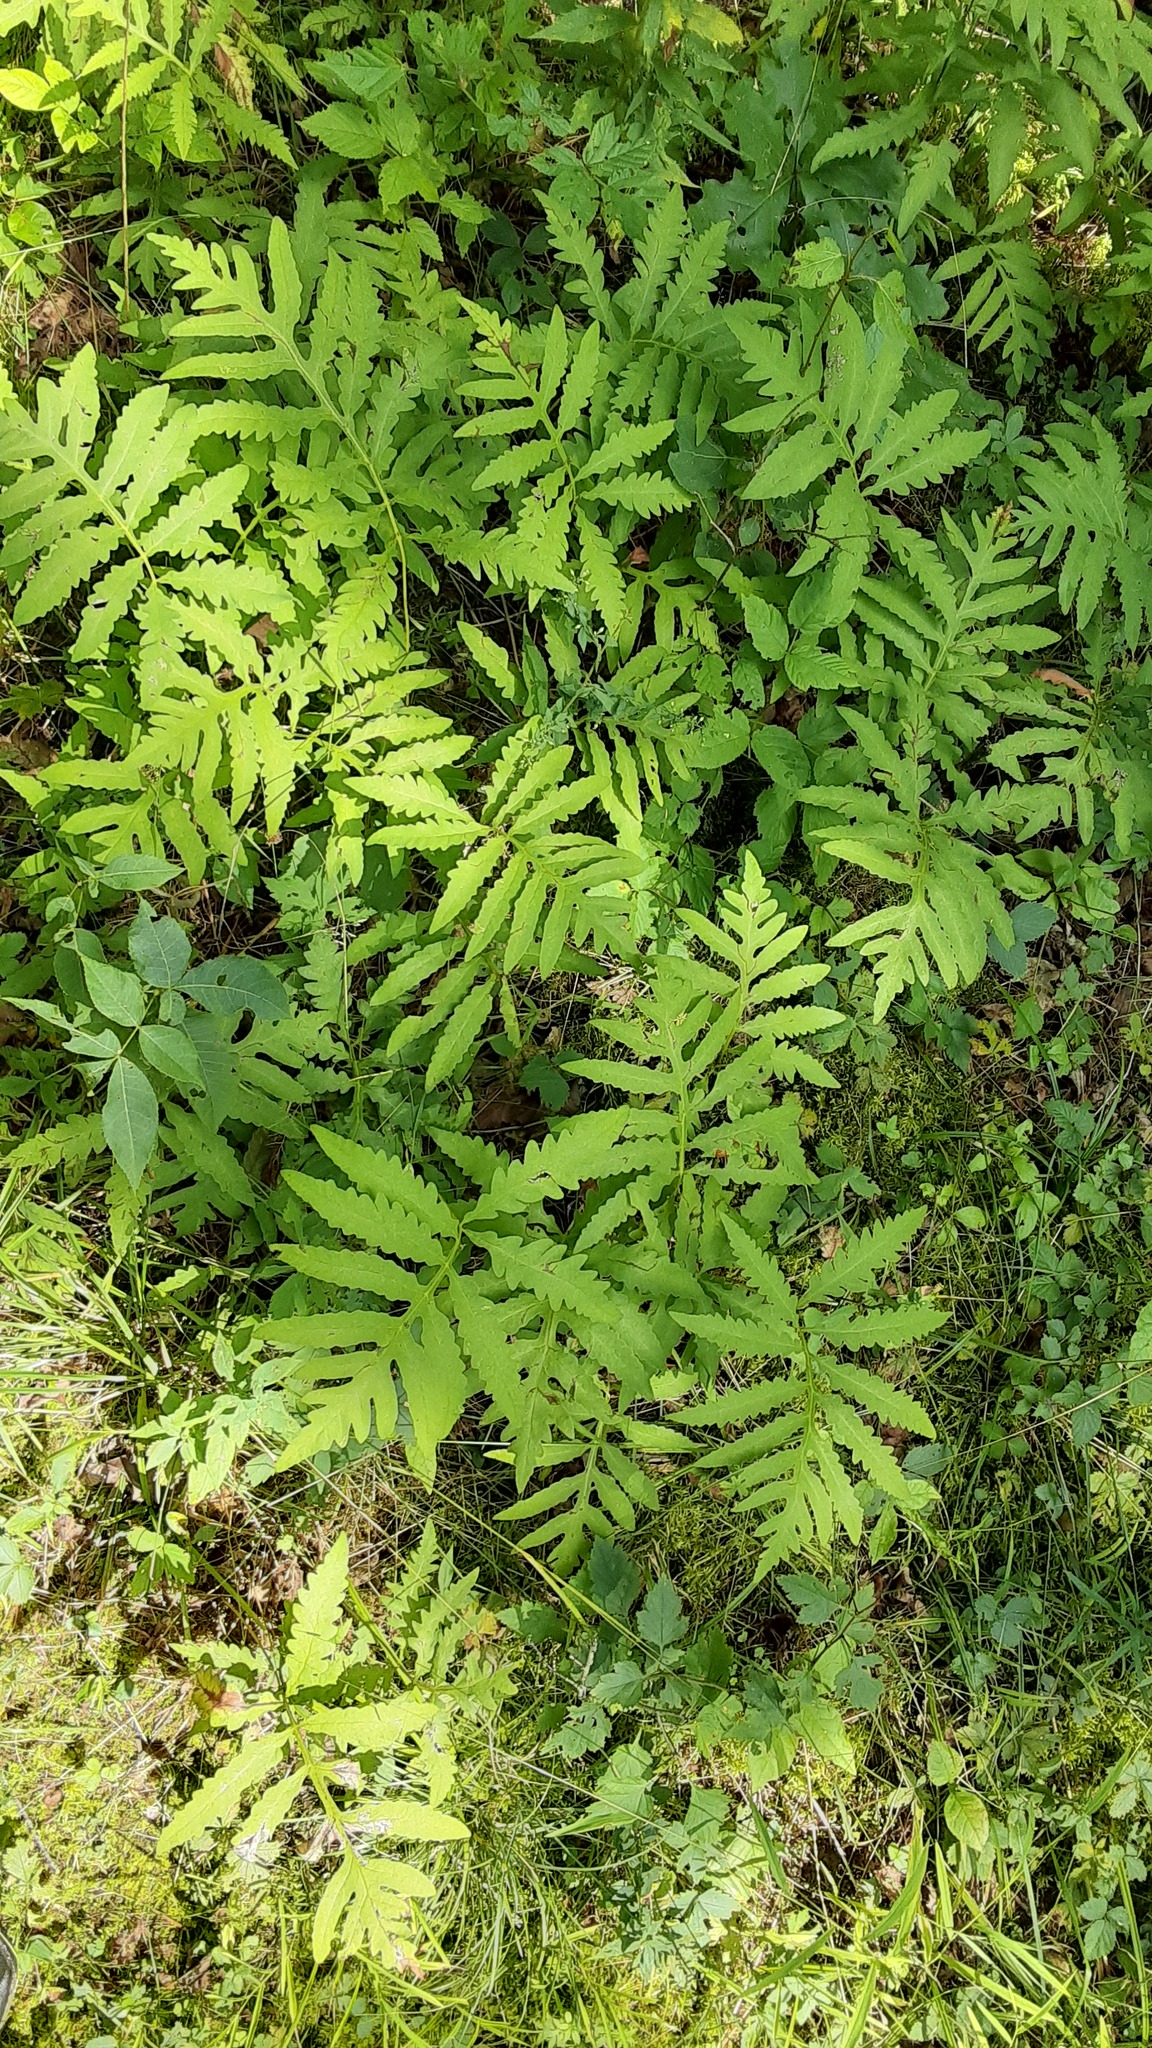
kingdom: Plantae
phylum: Tracheophyta
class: Polypodiopsida
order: Polypodiales
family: Onocleaceae
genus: Onoclea
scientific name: Onoclea sensibilis
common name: Sensitive fern
